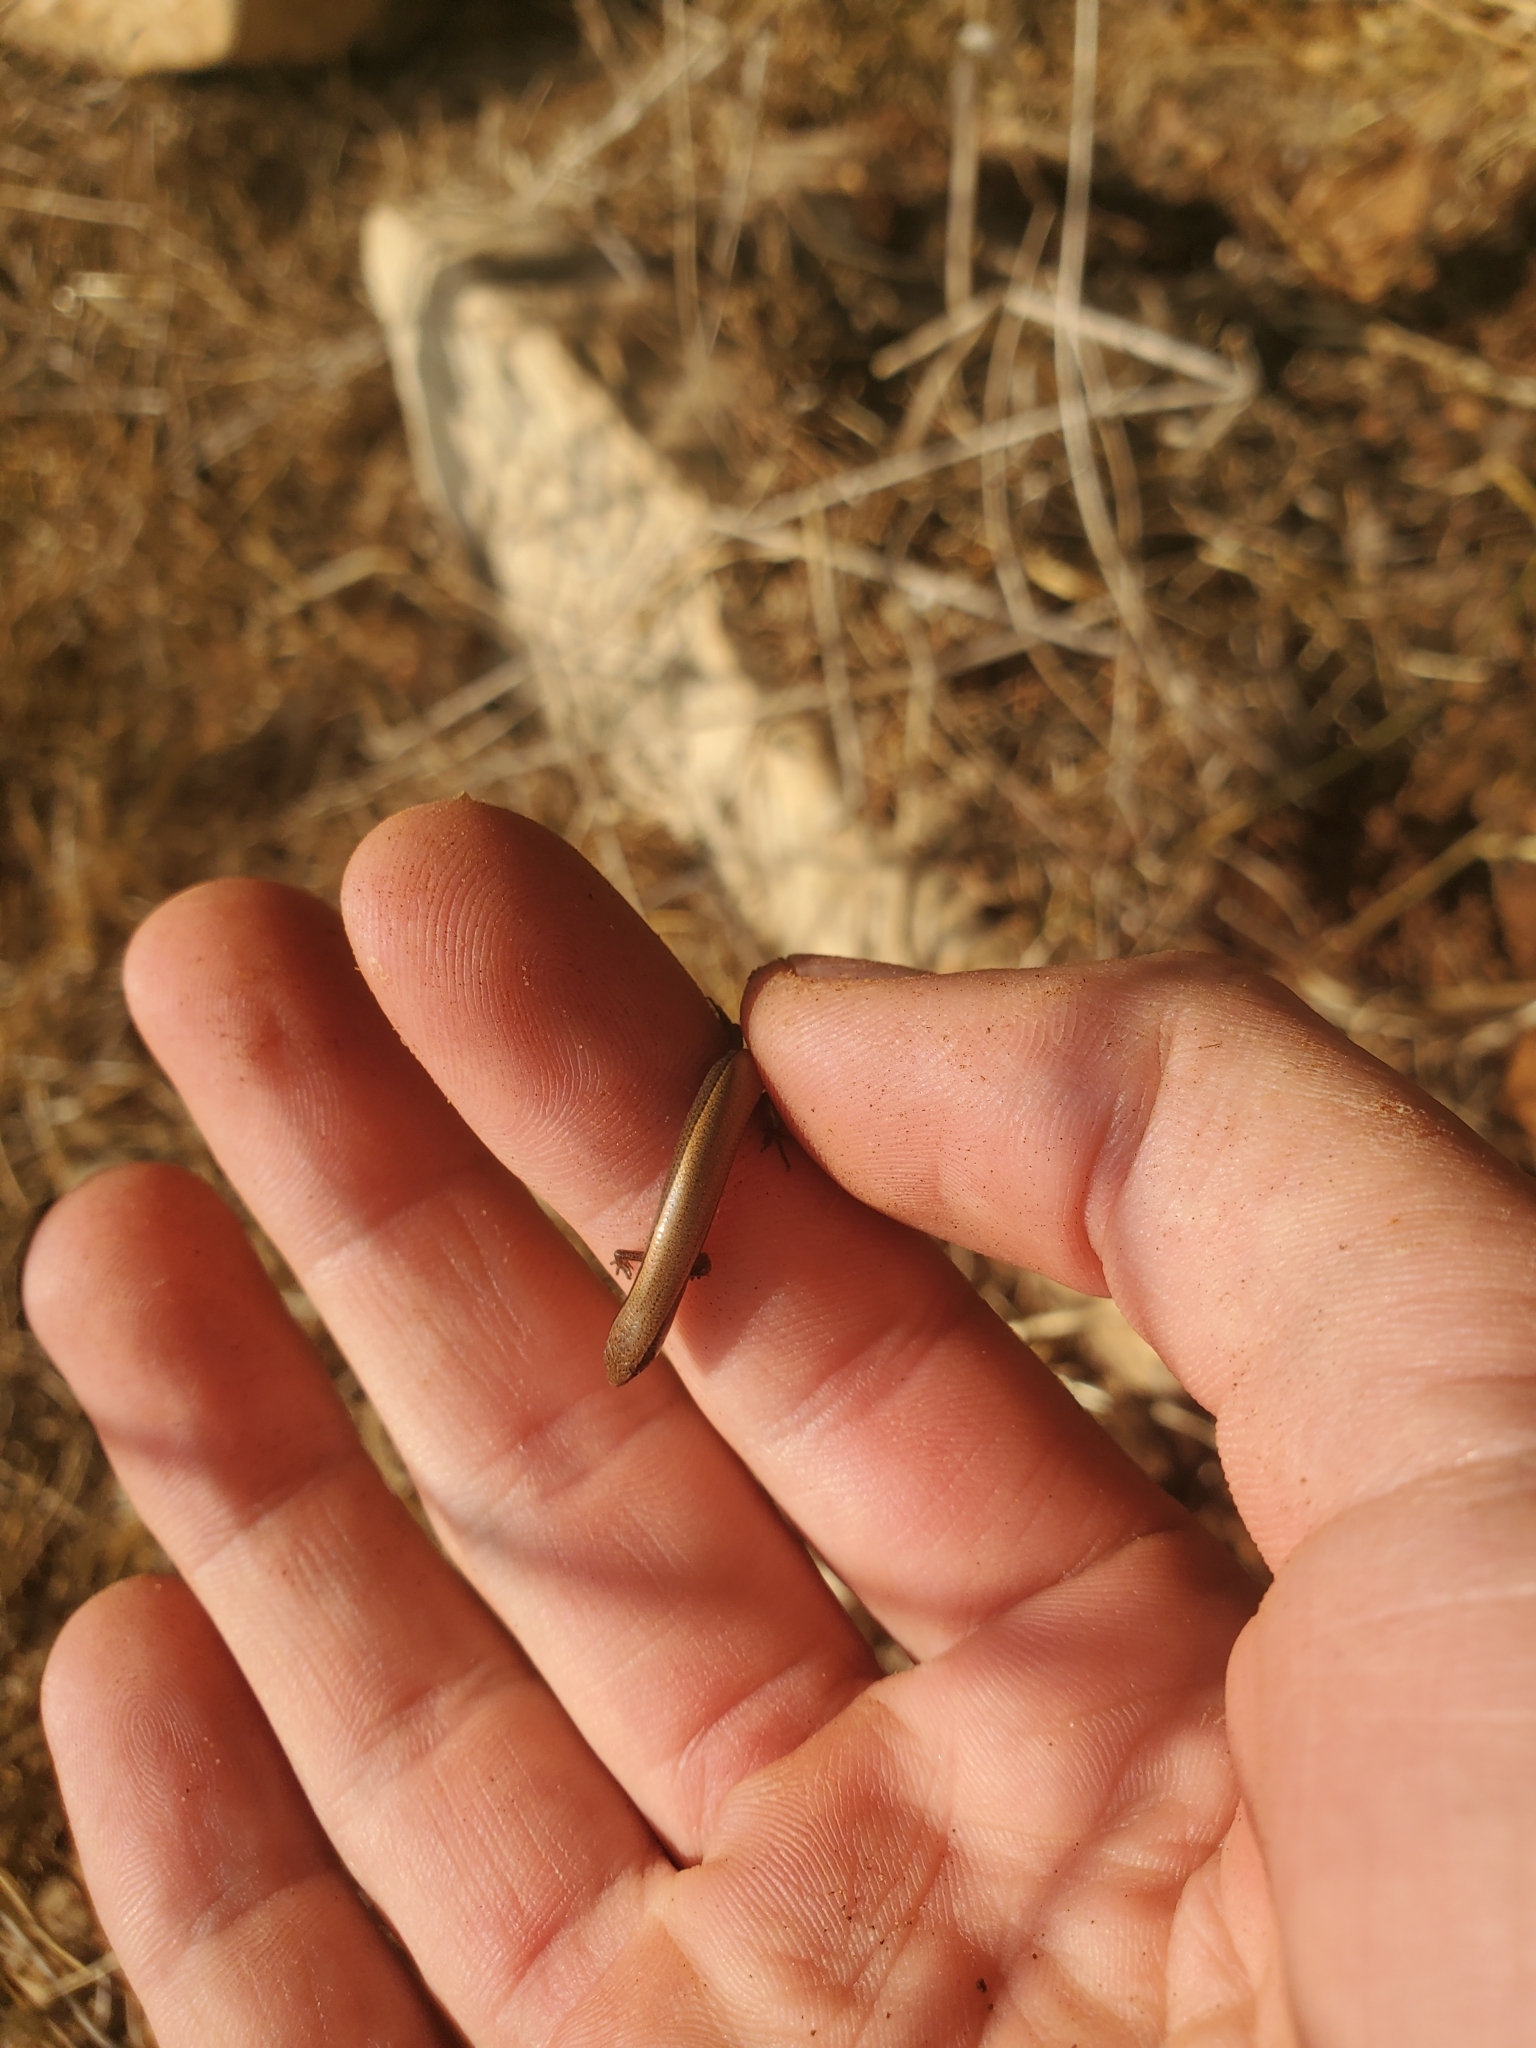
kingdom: Animalia
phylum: Chordata
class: Squamata
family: Scincidae
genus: Ablepharus
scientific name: Ablepharus rueppellii
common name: Rueppel’s snake-eyed skink
